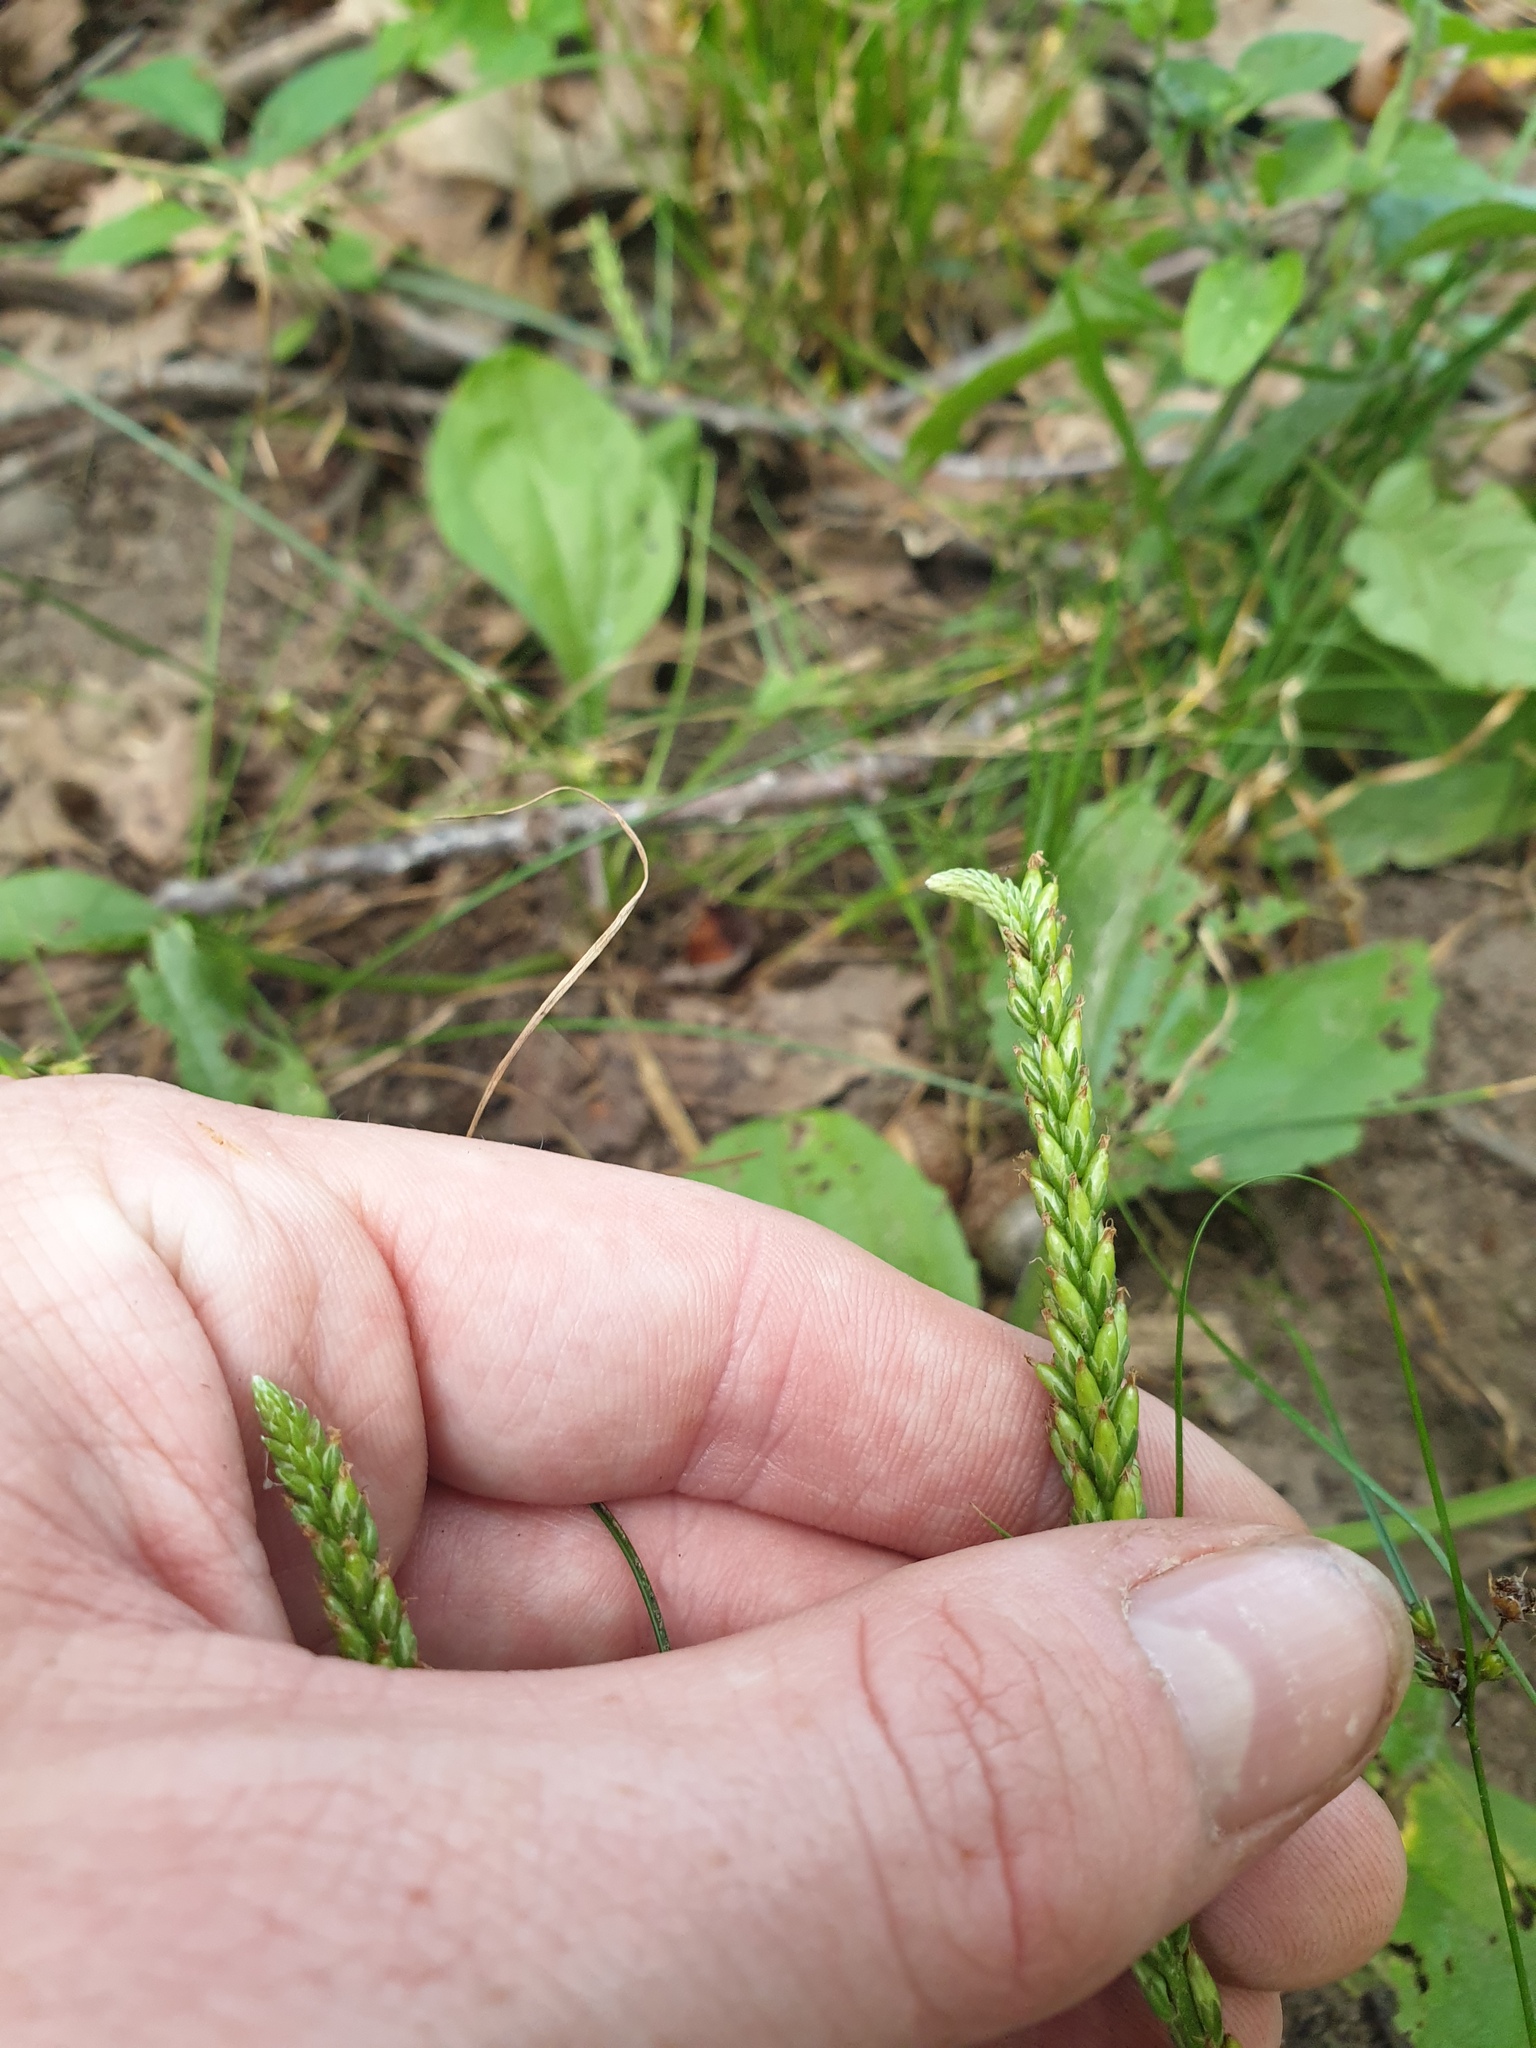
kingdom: Plantae
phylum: Tracheophyta
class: Magnoliopsida
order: Lamiales
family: Plantaginaceae
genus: Plantago
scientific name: Plantago rugelii
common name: American plantain
